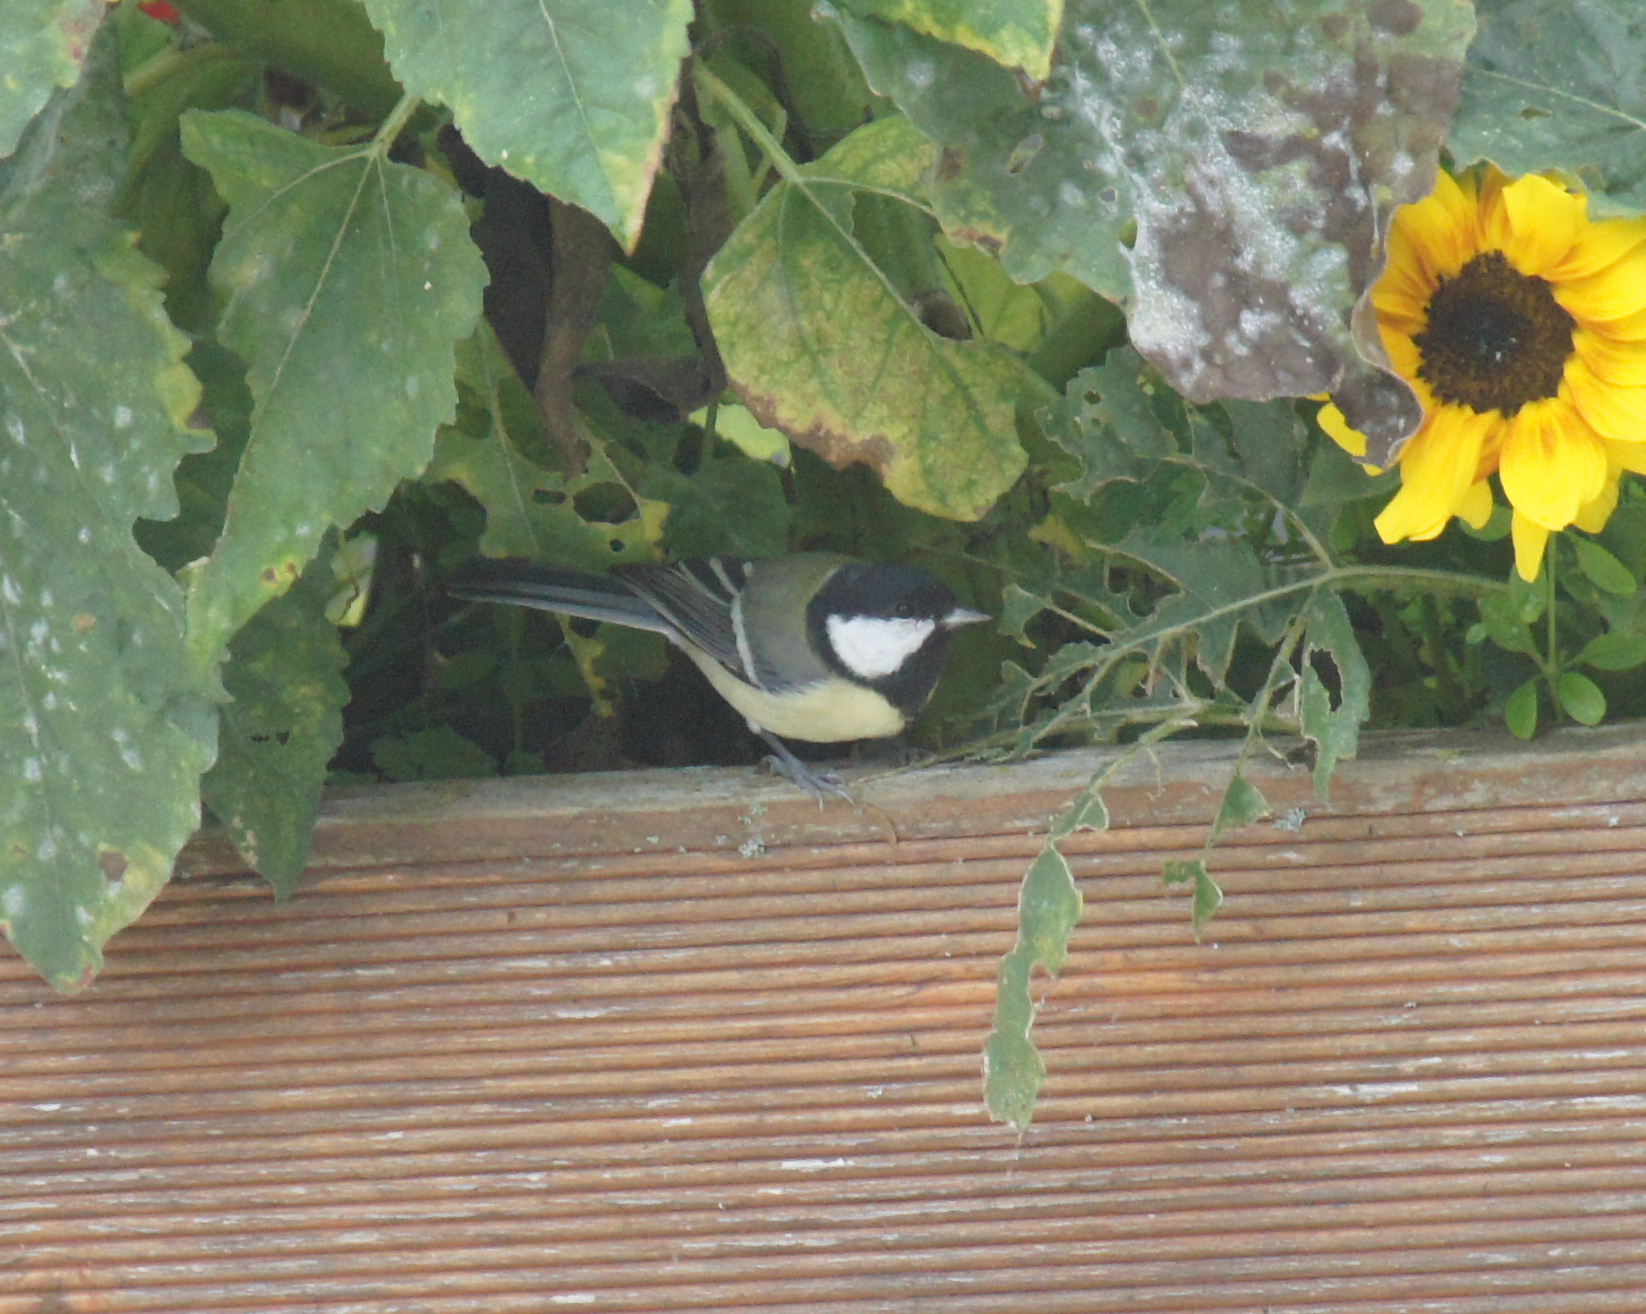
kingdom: Animalia
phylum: Chordata
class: Aves
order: Passeriformes
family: Paridae
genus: Parus
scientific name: Parus major
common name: Great tit
